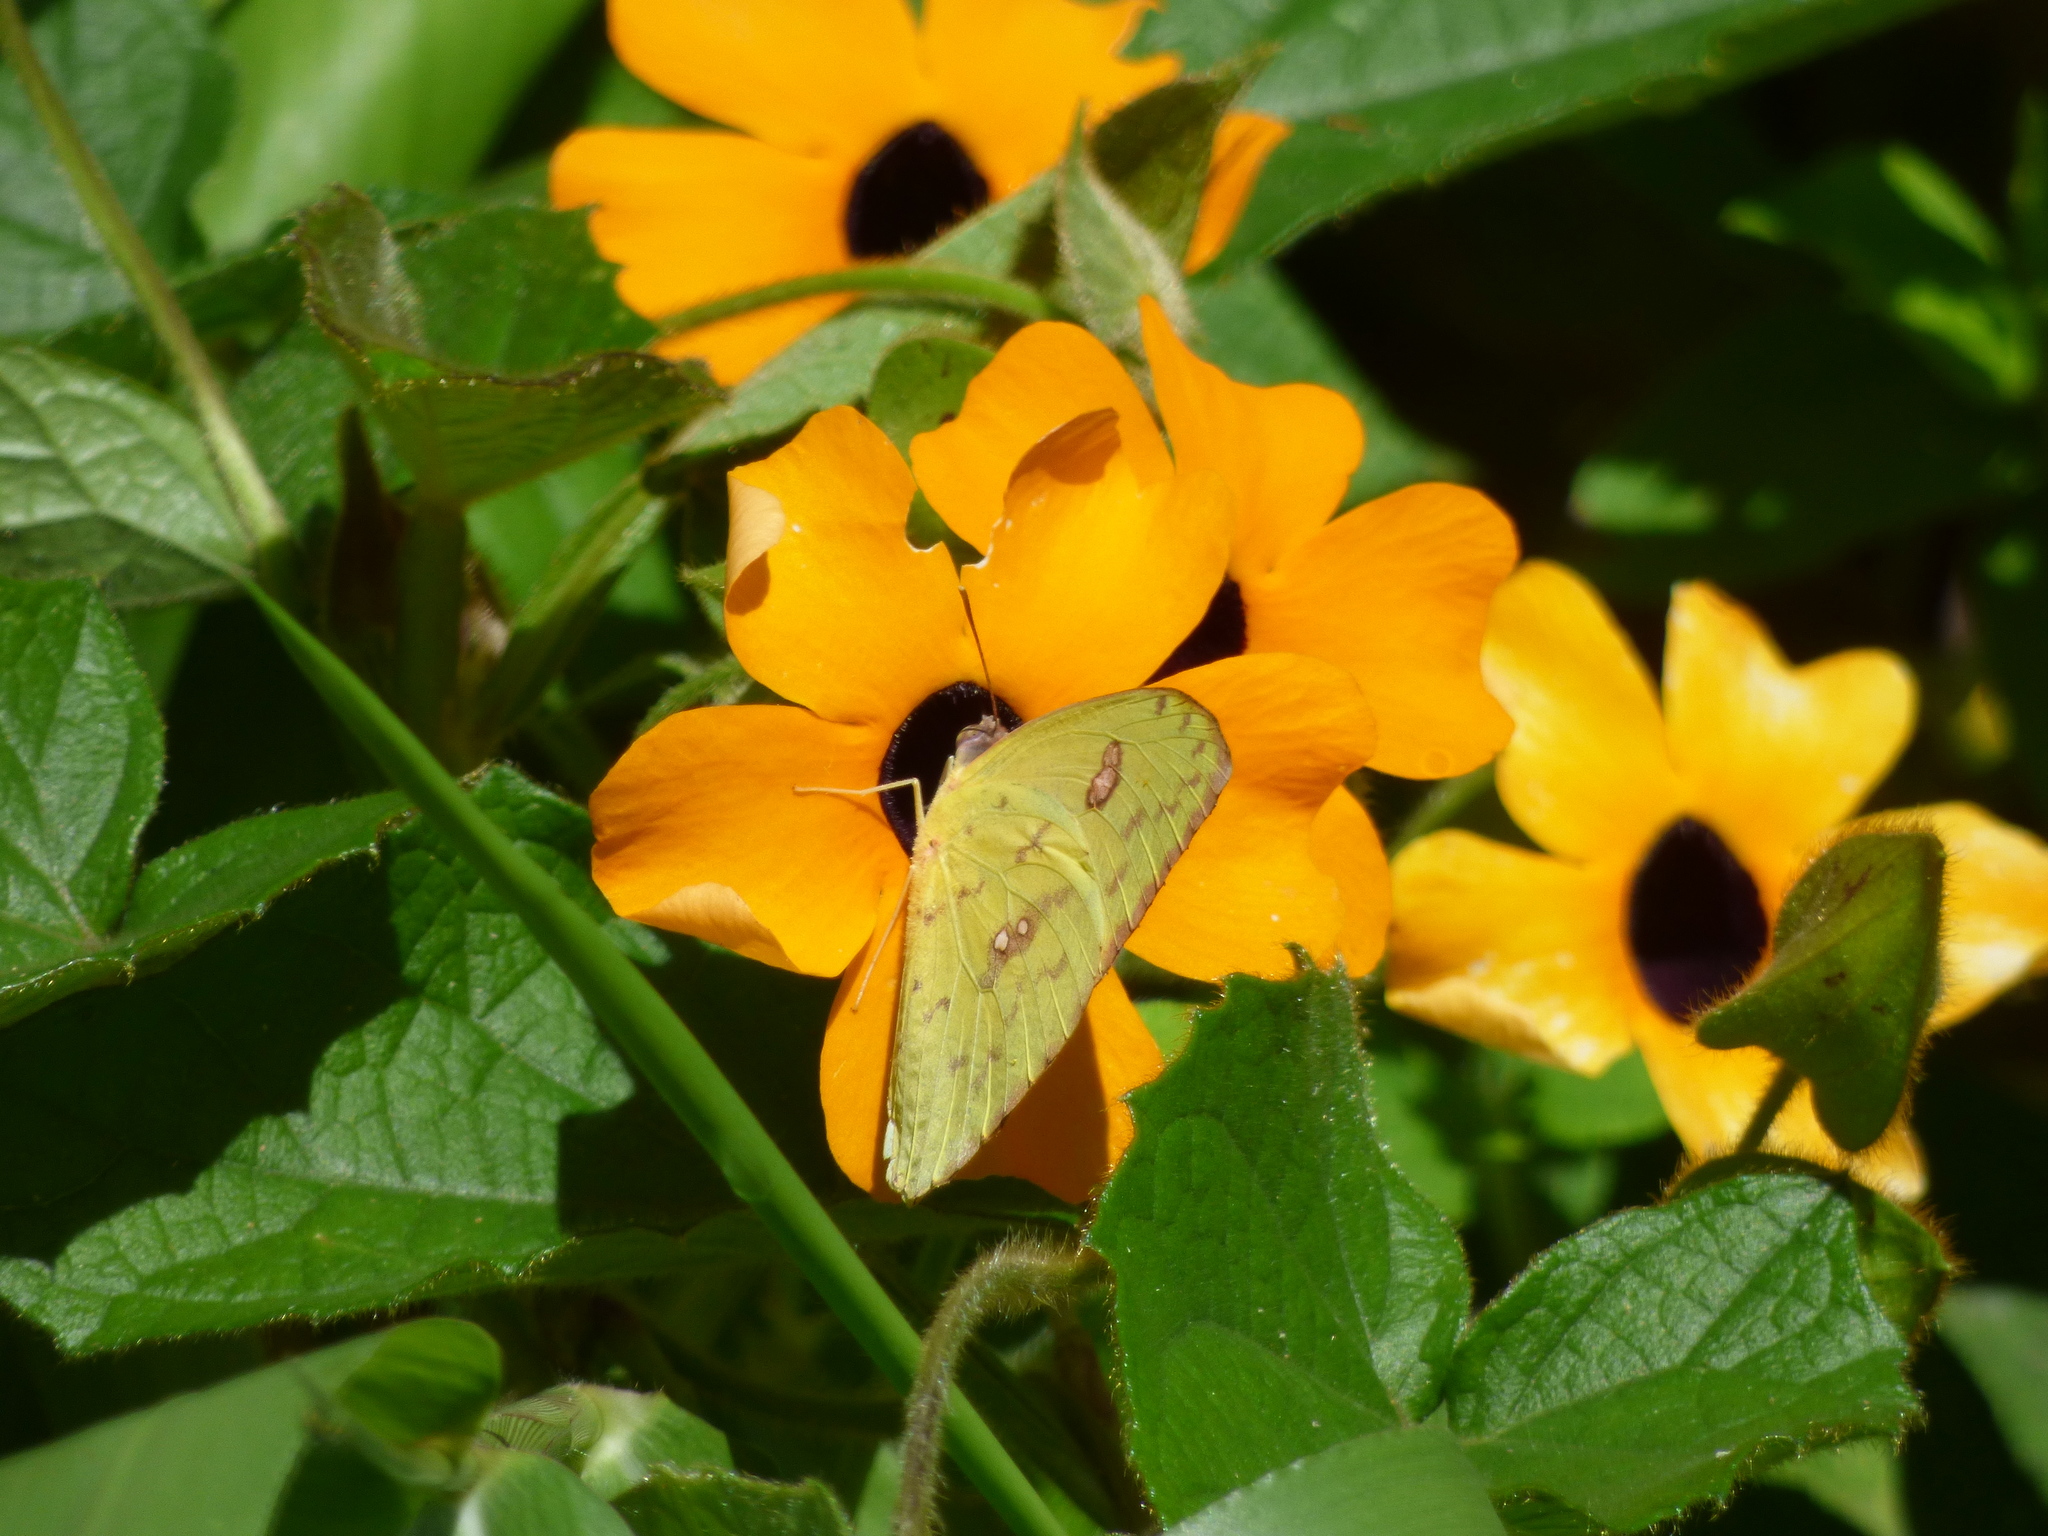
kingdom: Animalia
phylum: Arthropoda
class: Insecta
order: Lepidoptera
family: Pieridae
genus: Phoebis
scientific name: Phoebis philea
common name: Orange-barred giant sulphur
